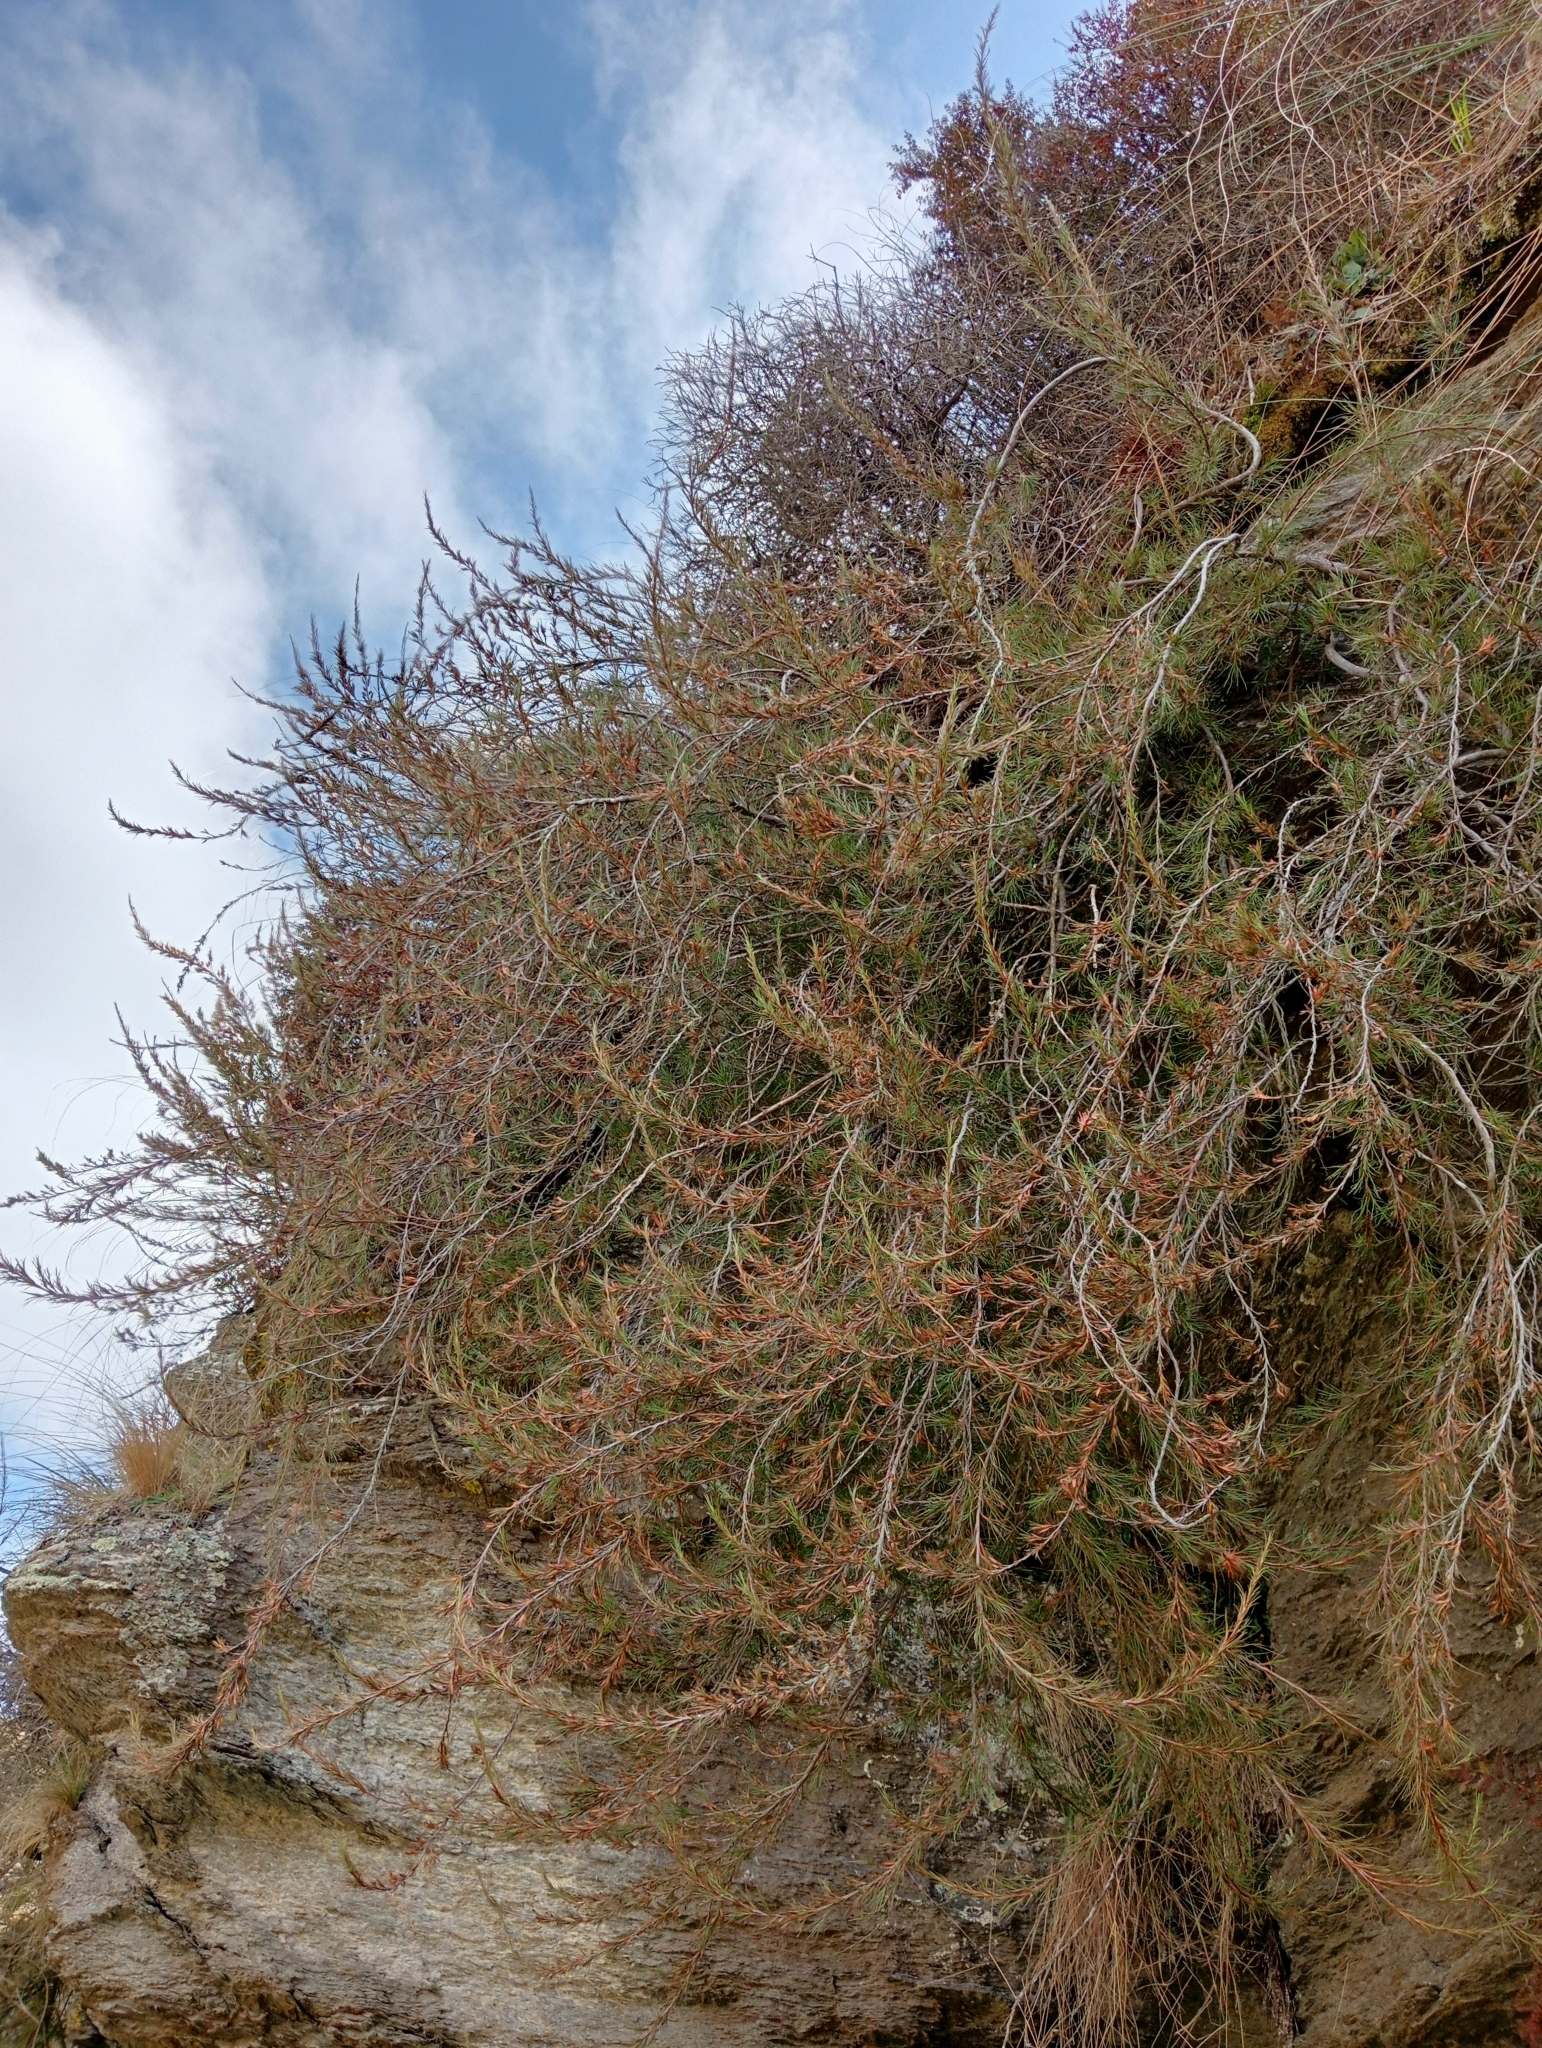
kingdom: Plantae
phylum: Tracheophyta
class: Magnoliopsida
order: Ericales
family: Ericaceae
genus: Dracophyllum
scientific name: Dracophyllum frondosum
